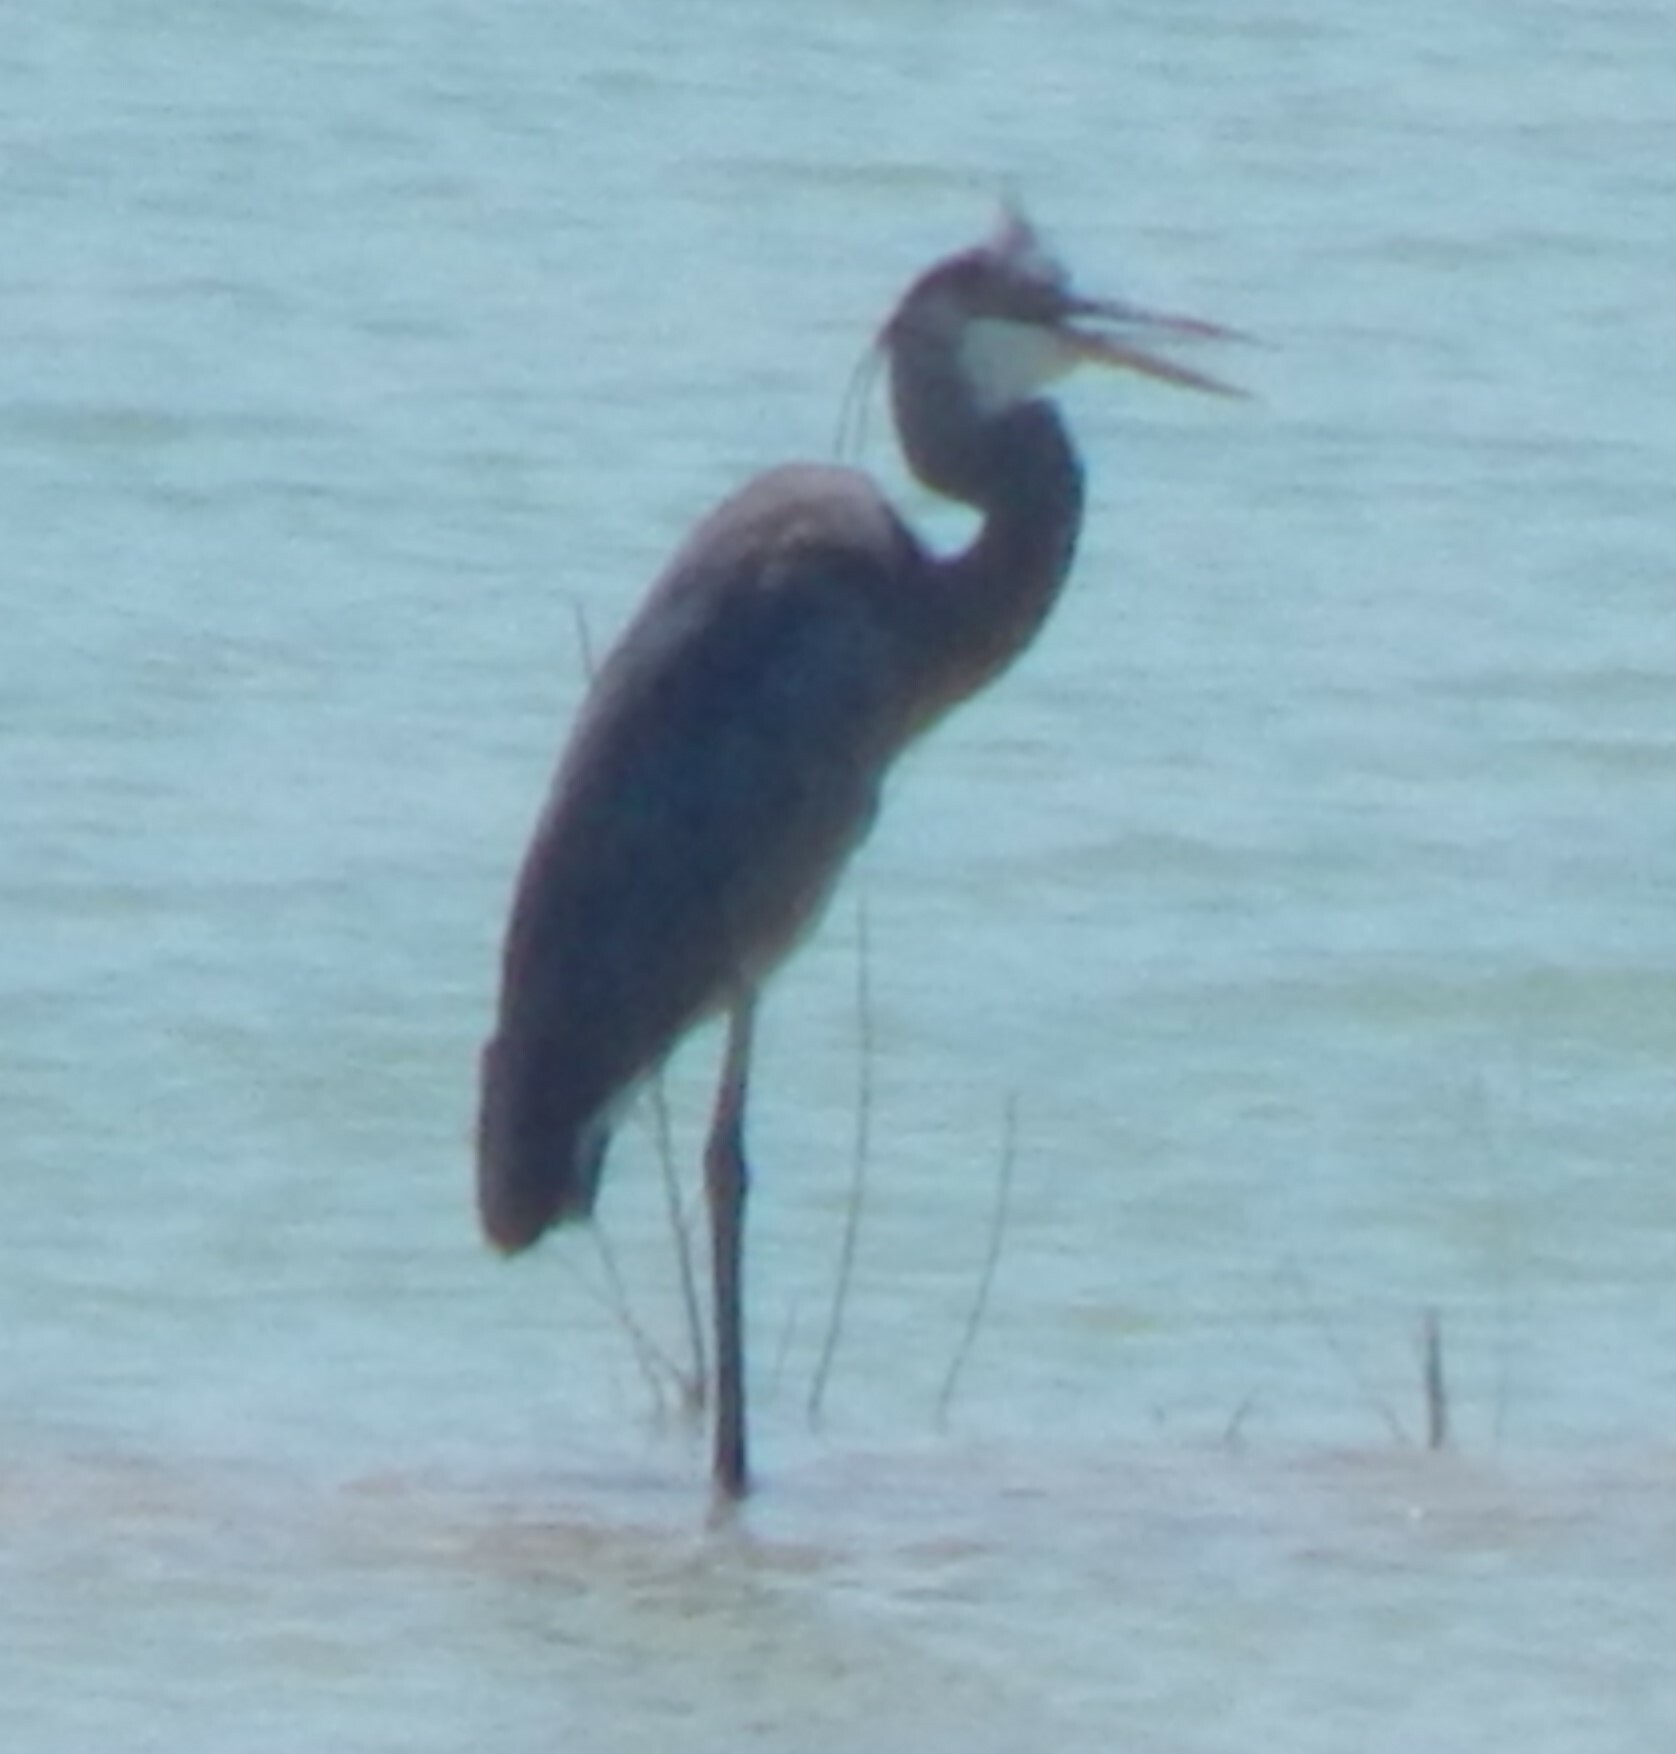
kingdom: Animalia
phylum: Chordata
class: Aves
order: Pelecaniformes
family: Ardeidae
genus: Ardea
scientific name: Ardea herodias
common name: Great blue heron
